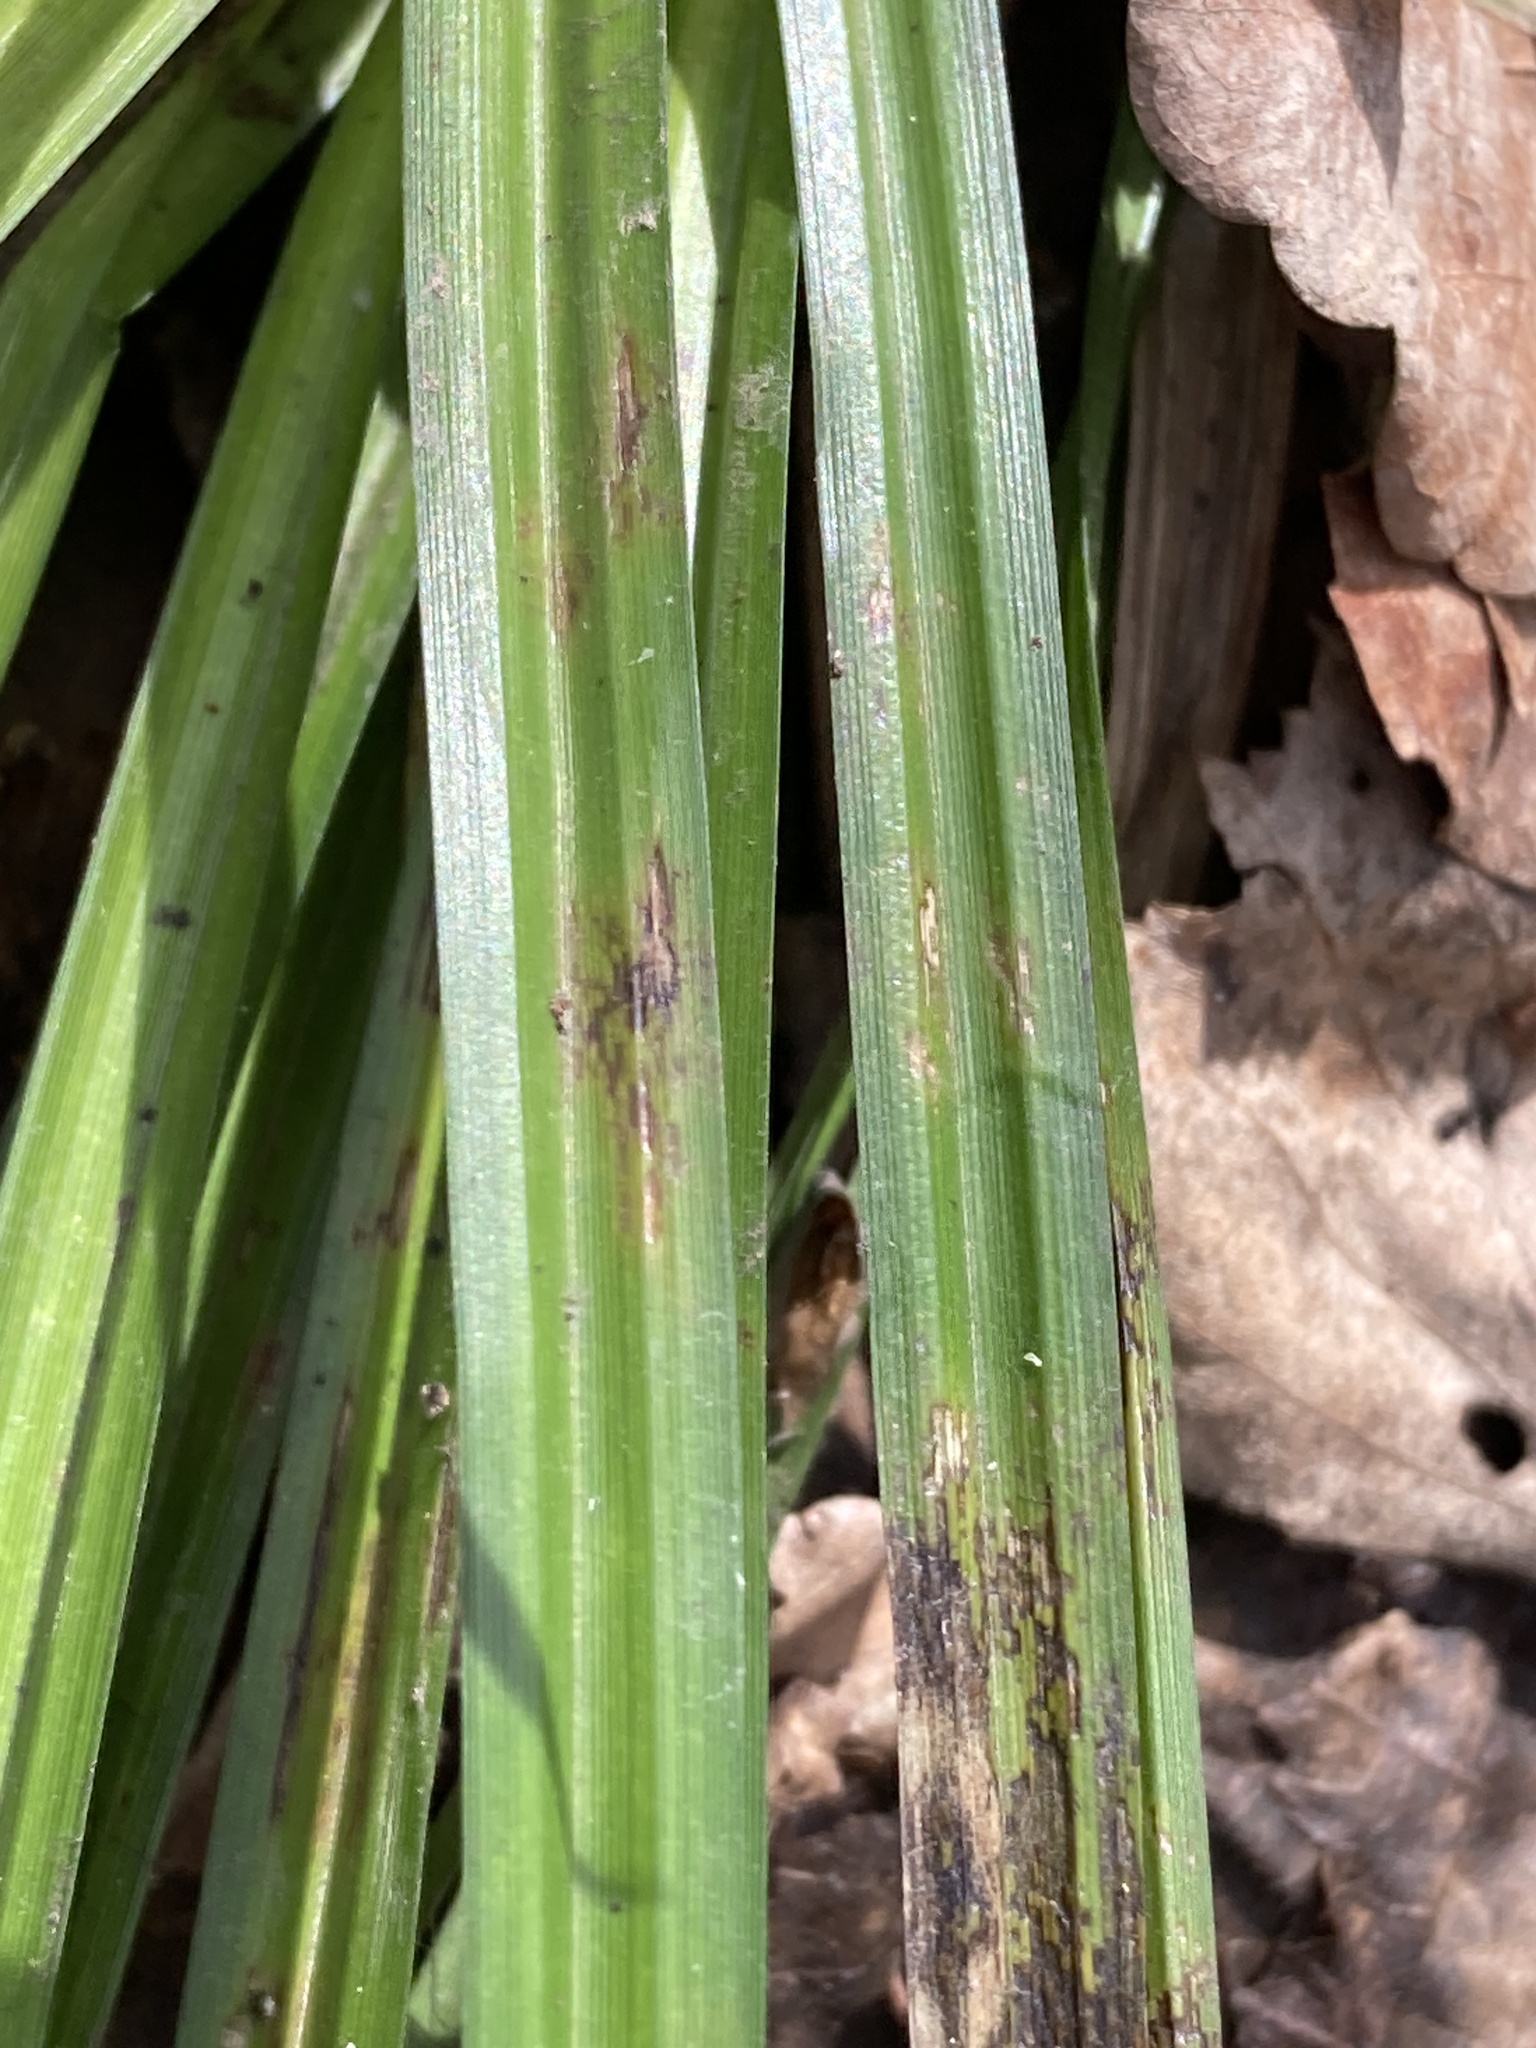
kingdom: Plantae
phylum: Tracheophyta
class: Liliopsida
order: Poales
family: Cyperaceae
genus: Carex
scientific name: Carex sylvatica
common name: Wood-sedge
